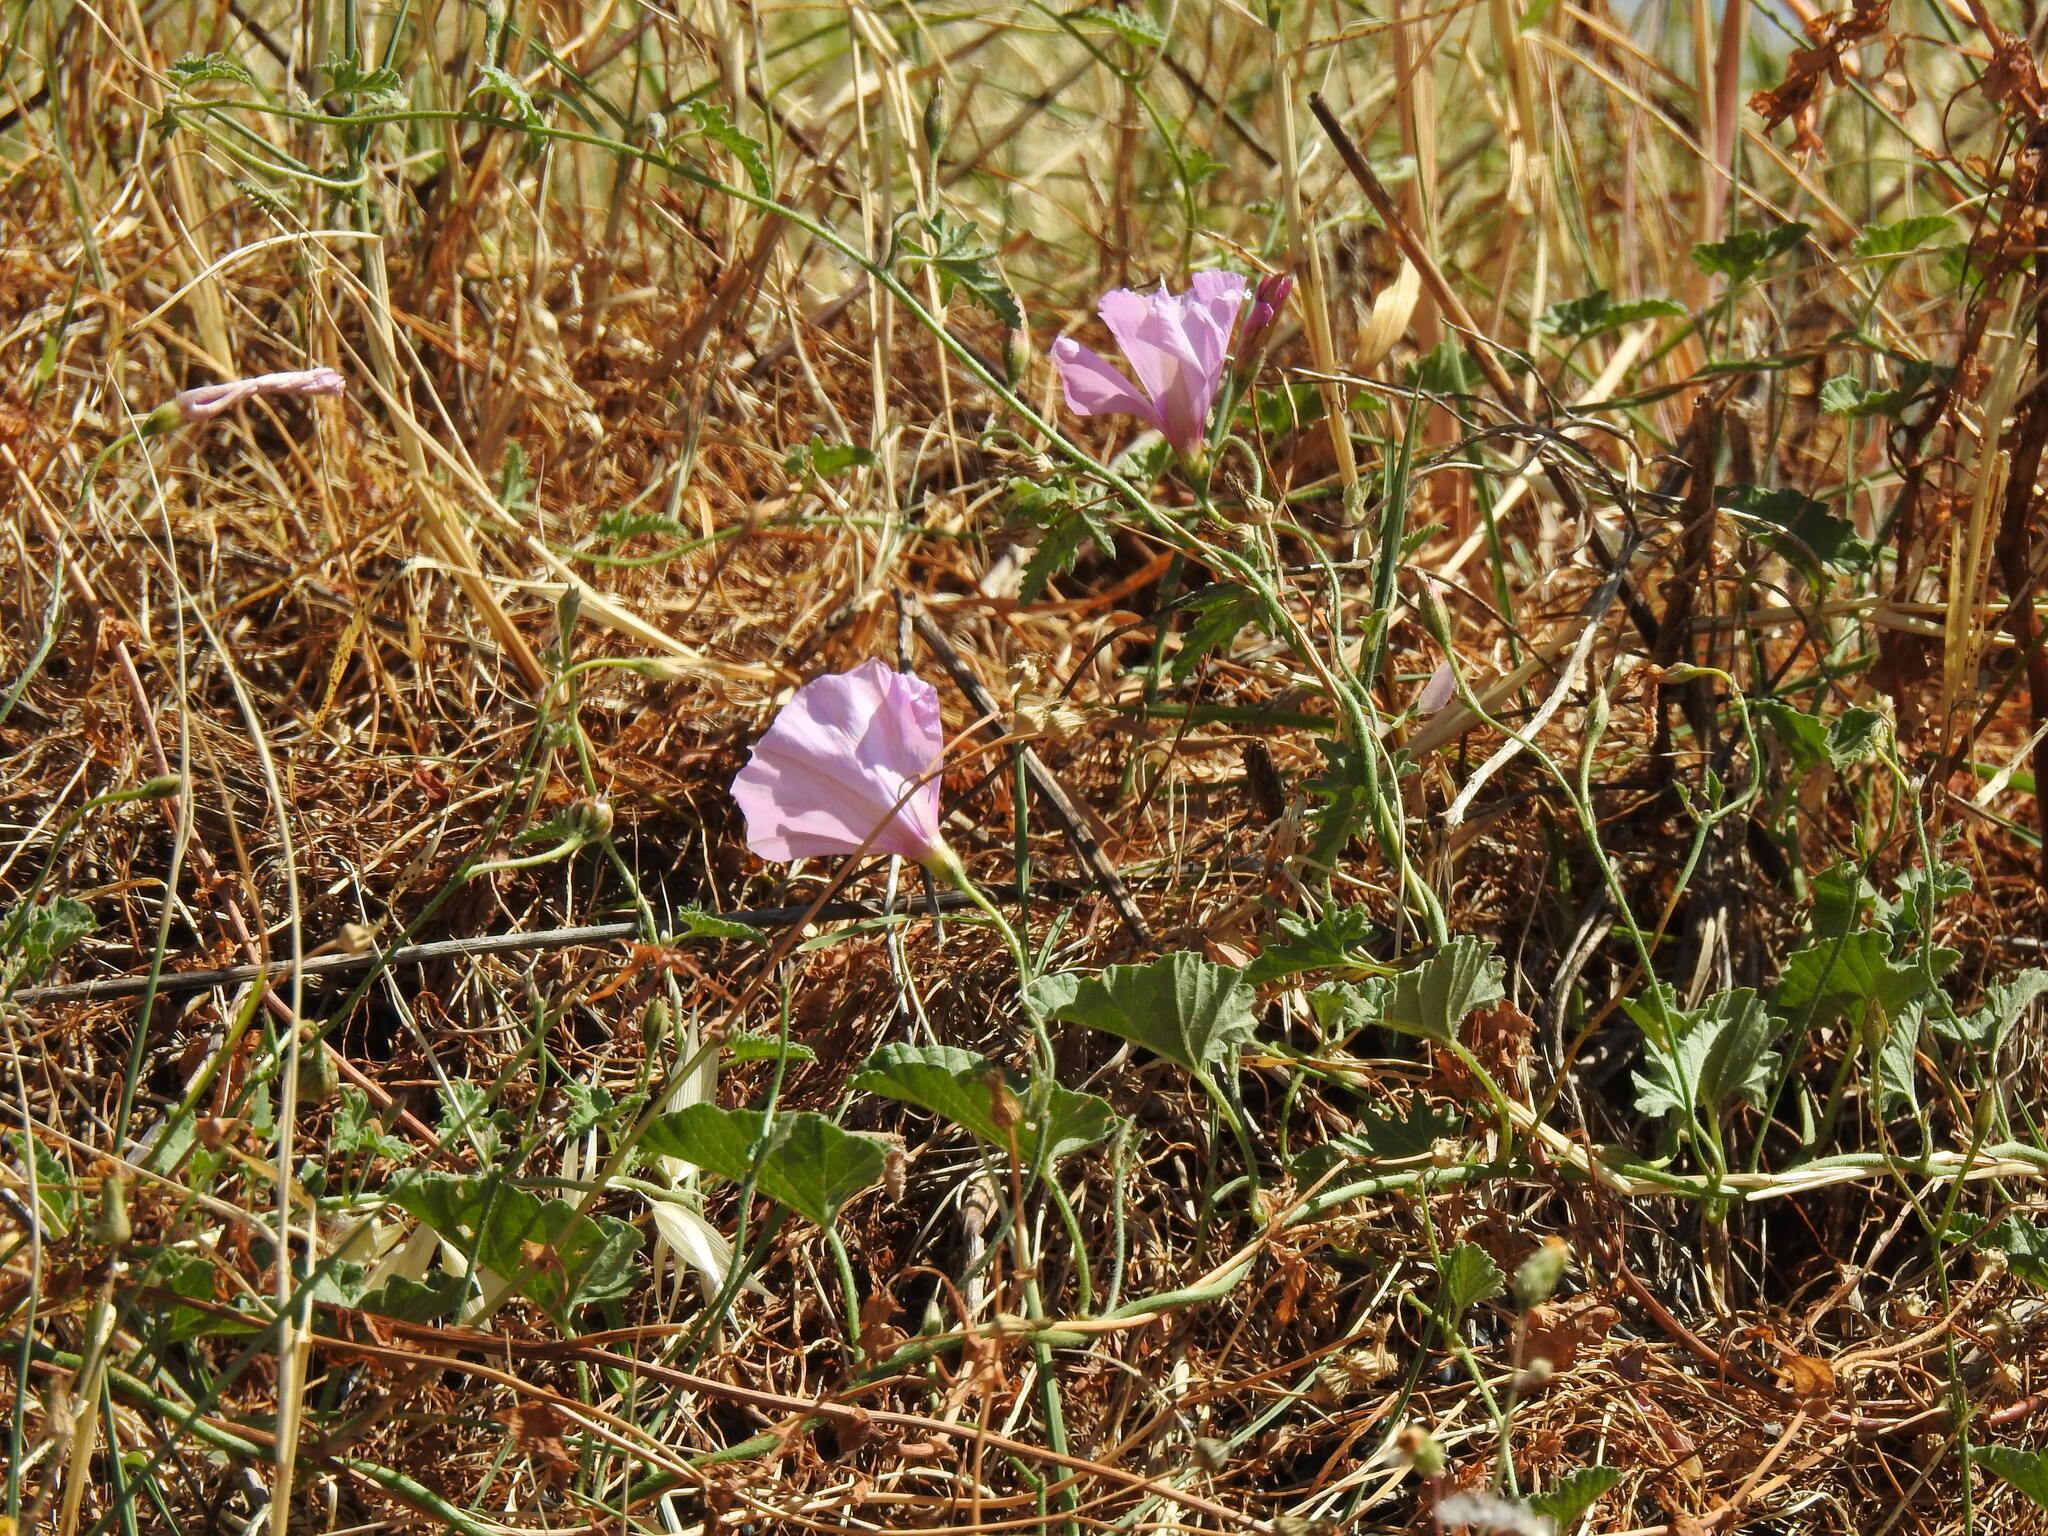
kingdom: Plantae
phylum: Tracheophyta
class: Magnoliopsida
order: Solanales
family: Convolvulaceae
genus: Convolvulus
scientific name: Convolvulus althaeoides
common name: Mallow bindweed
